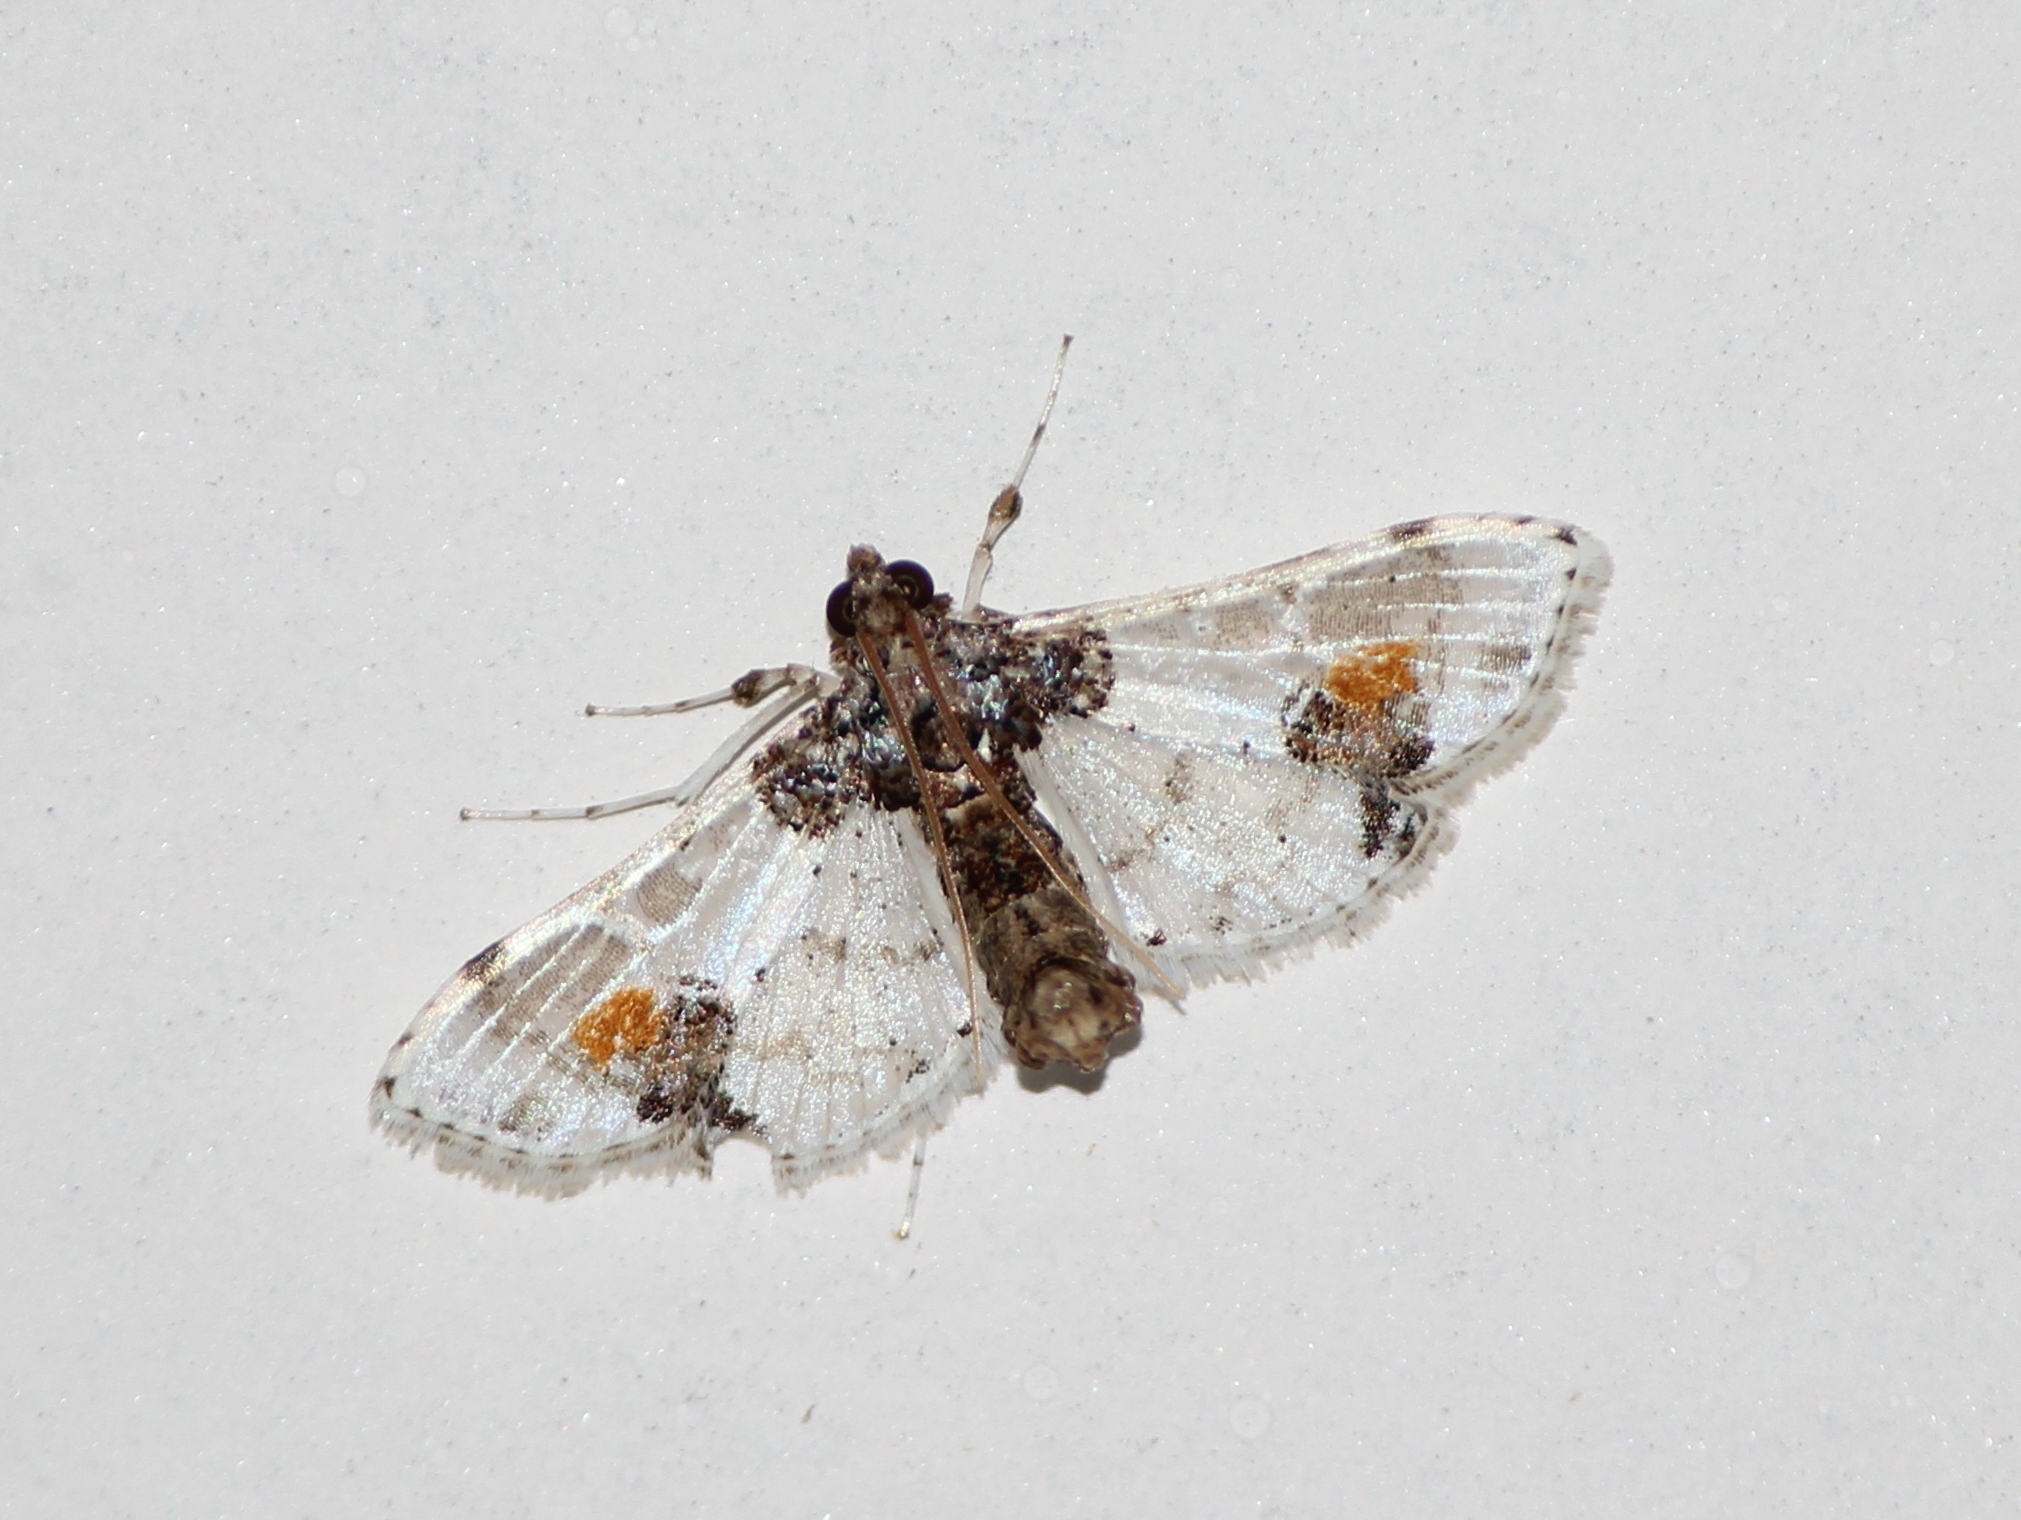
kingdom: Animalia
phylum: Arthropoda
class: Insecta
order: Lepidoptera
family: Crambidae
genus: Leucinodes
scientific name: Leucinodes orbonalis
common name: Aubergine pearl
